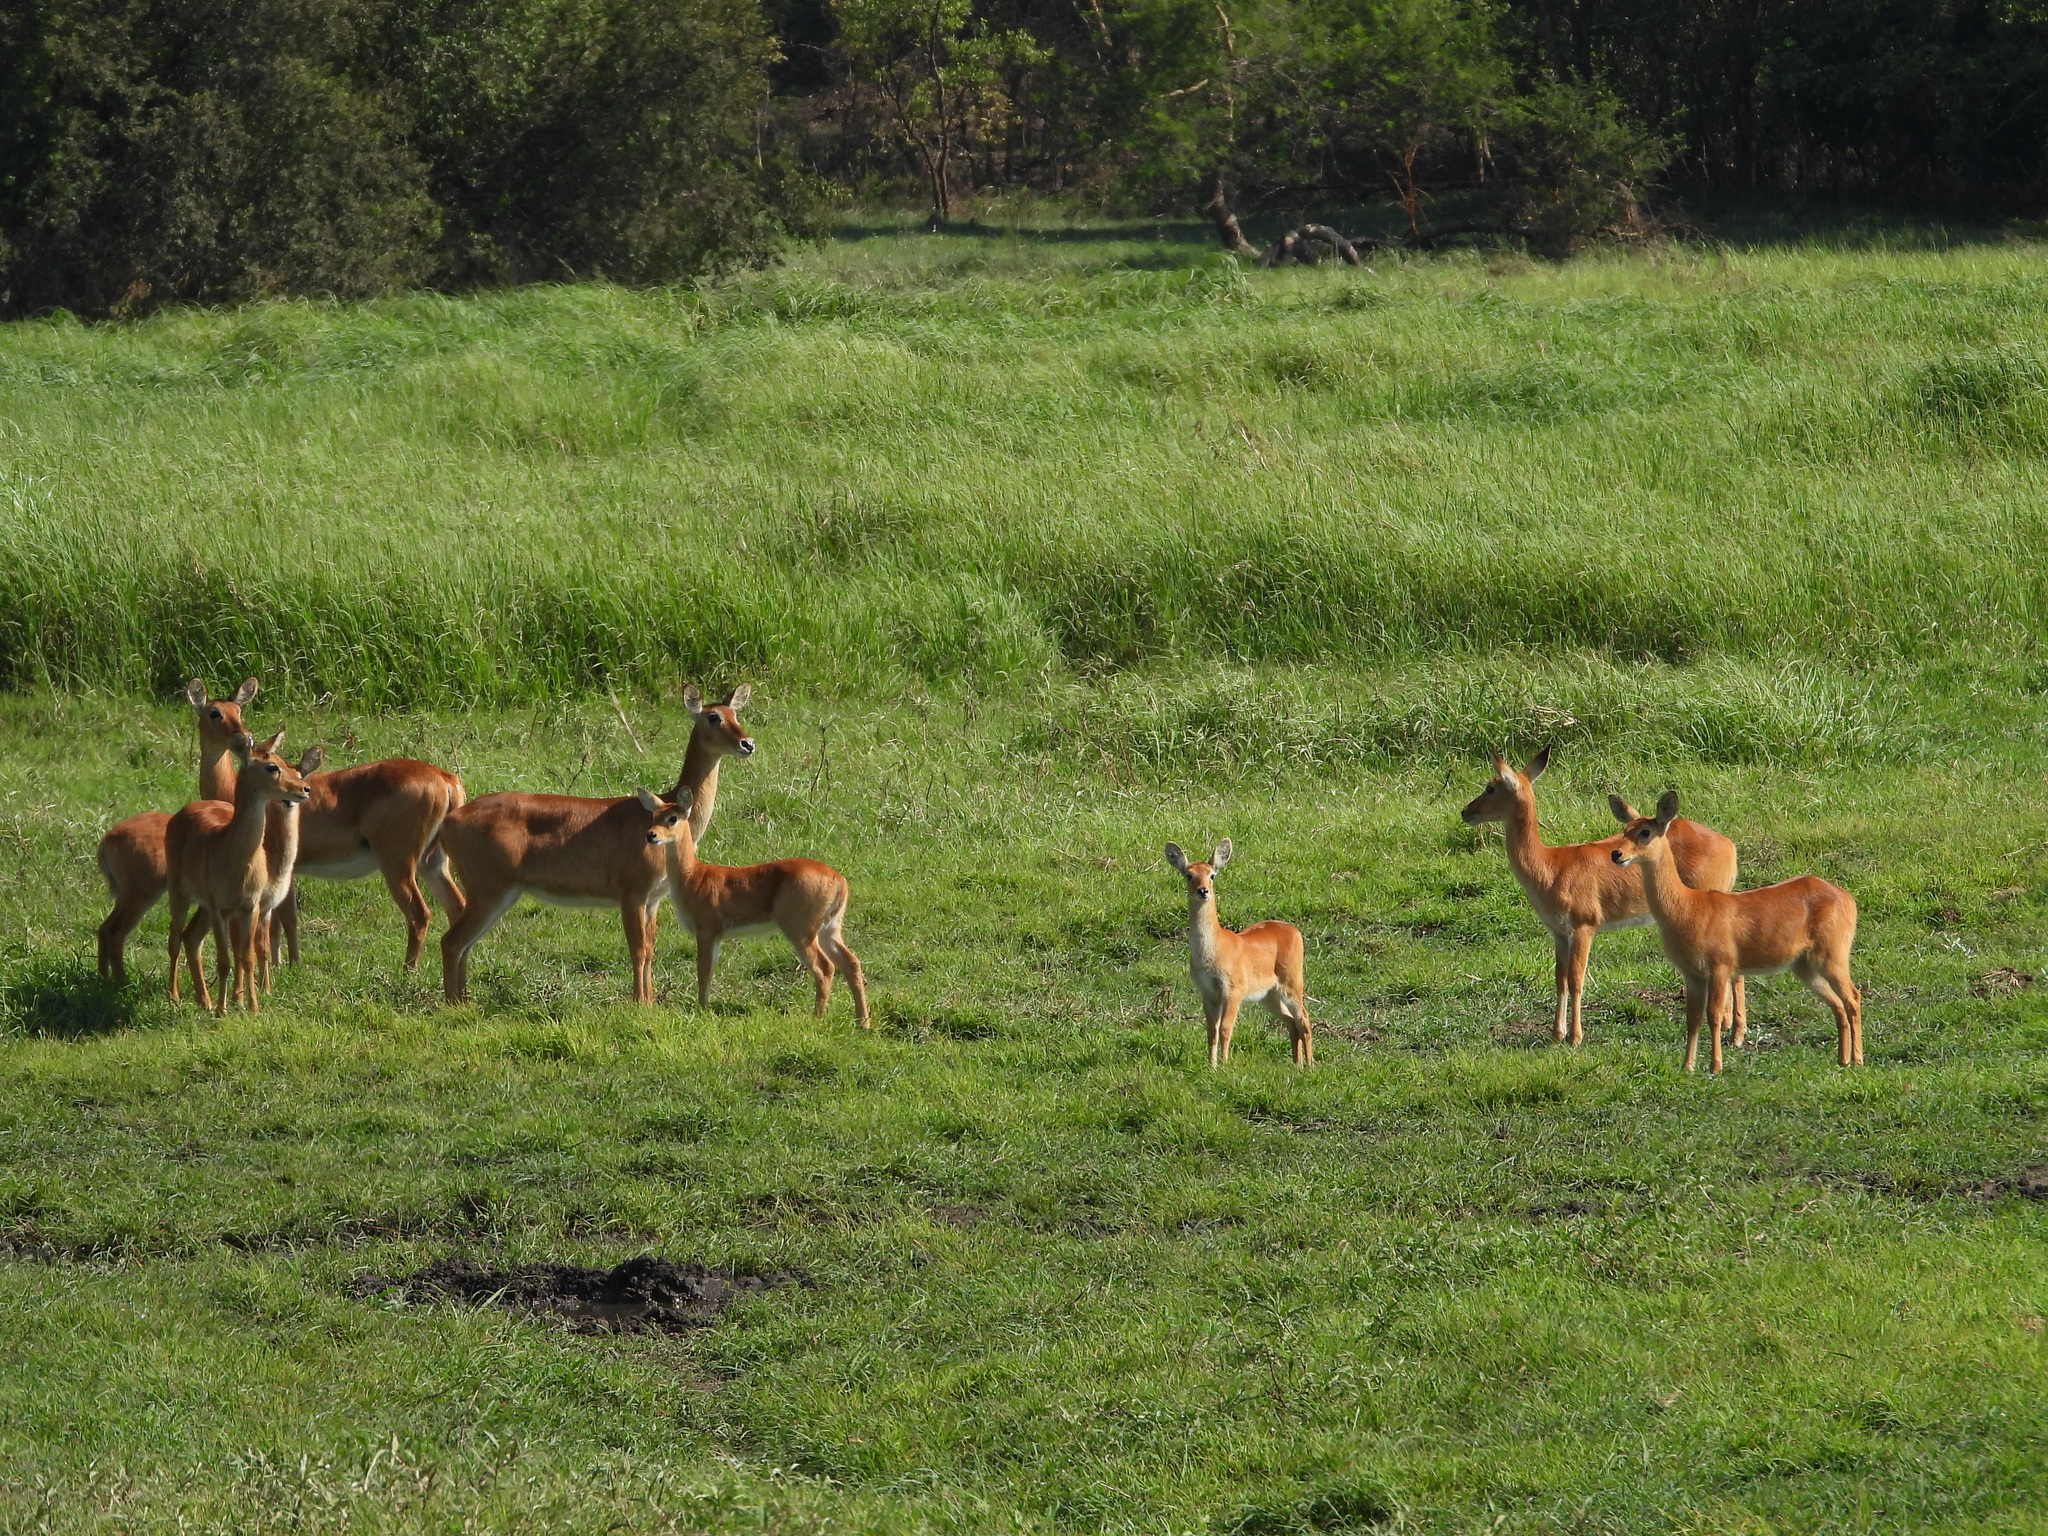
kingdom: Animalia
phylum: Chordata
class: Mammalia
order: Artiodactyla
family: Bovidae
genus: Kobus
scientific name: Kobus vardonii
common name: Puku
